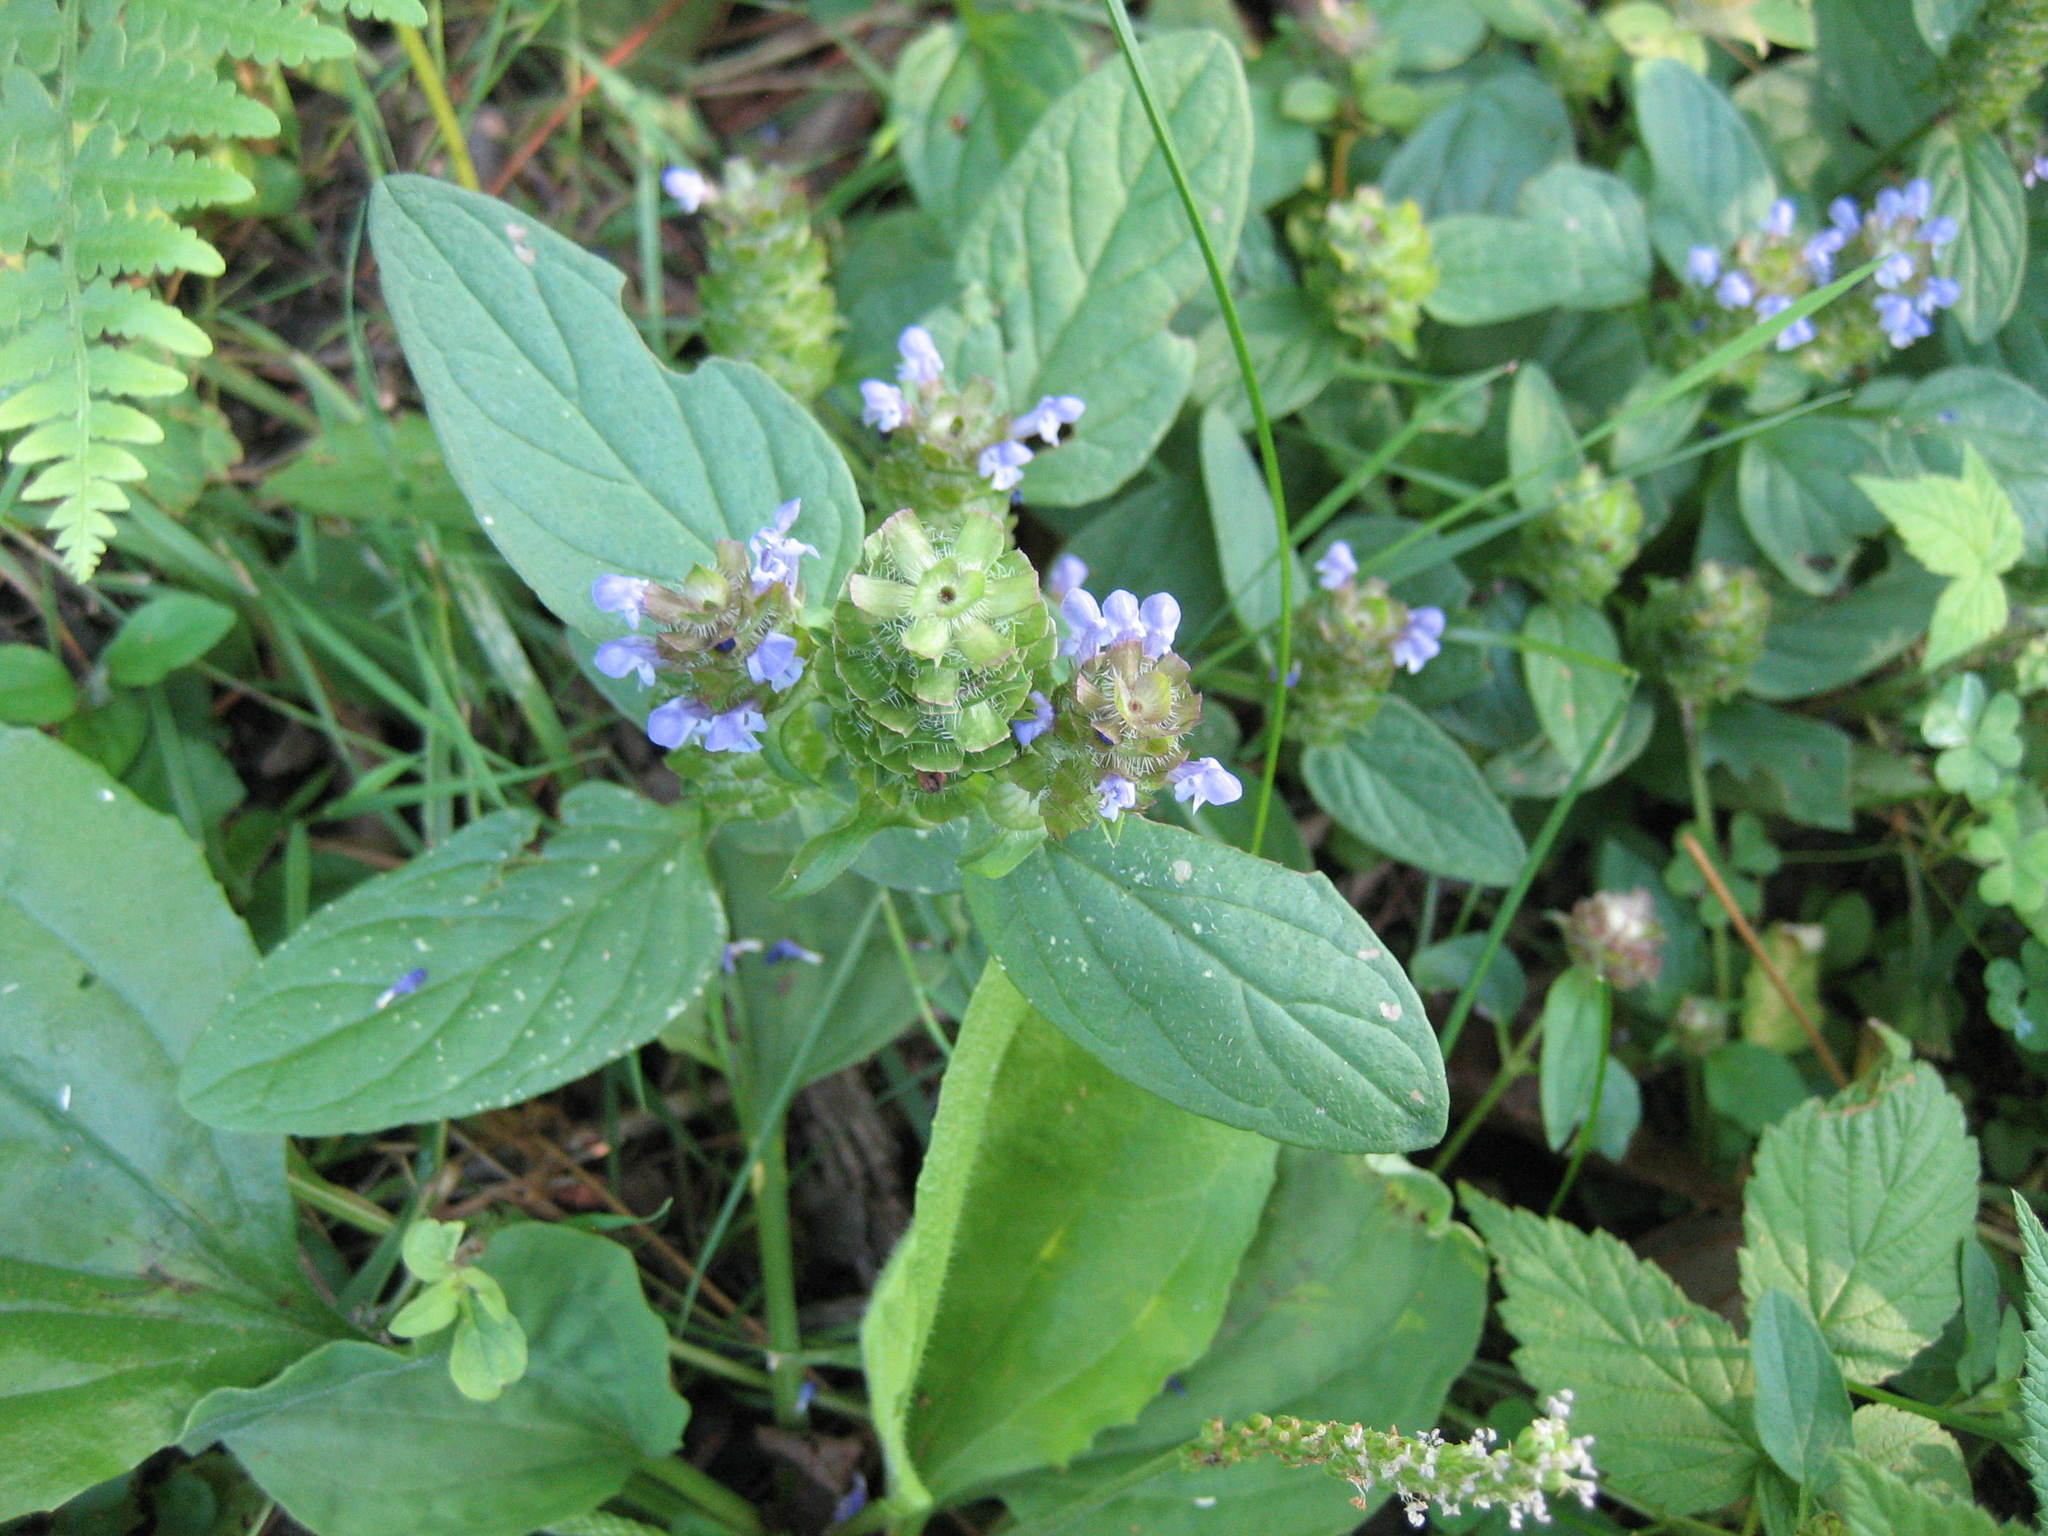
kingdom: Plantae
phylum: Tracheophyta
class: Magnoliopsida
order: Lamiales
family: Lamiaceae
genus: Prunella
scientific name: Prunella vulgaris
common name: Heal-all
